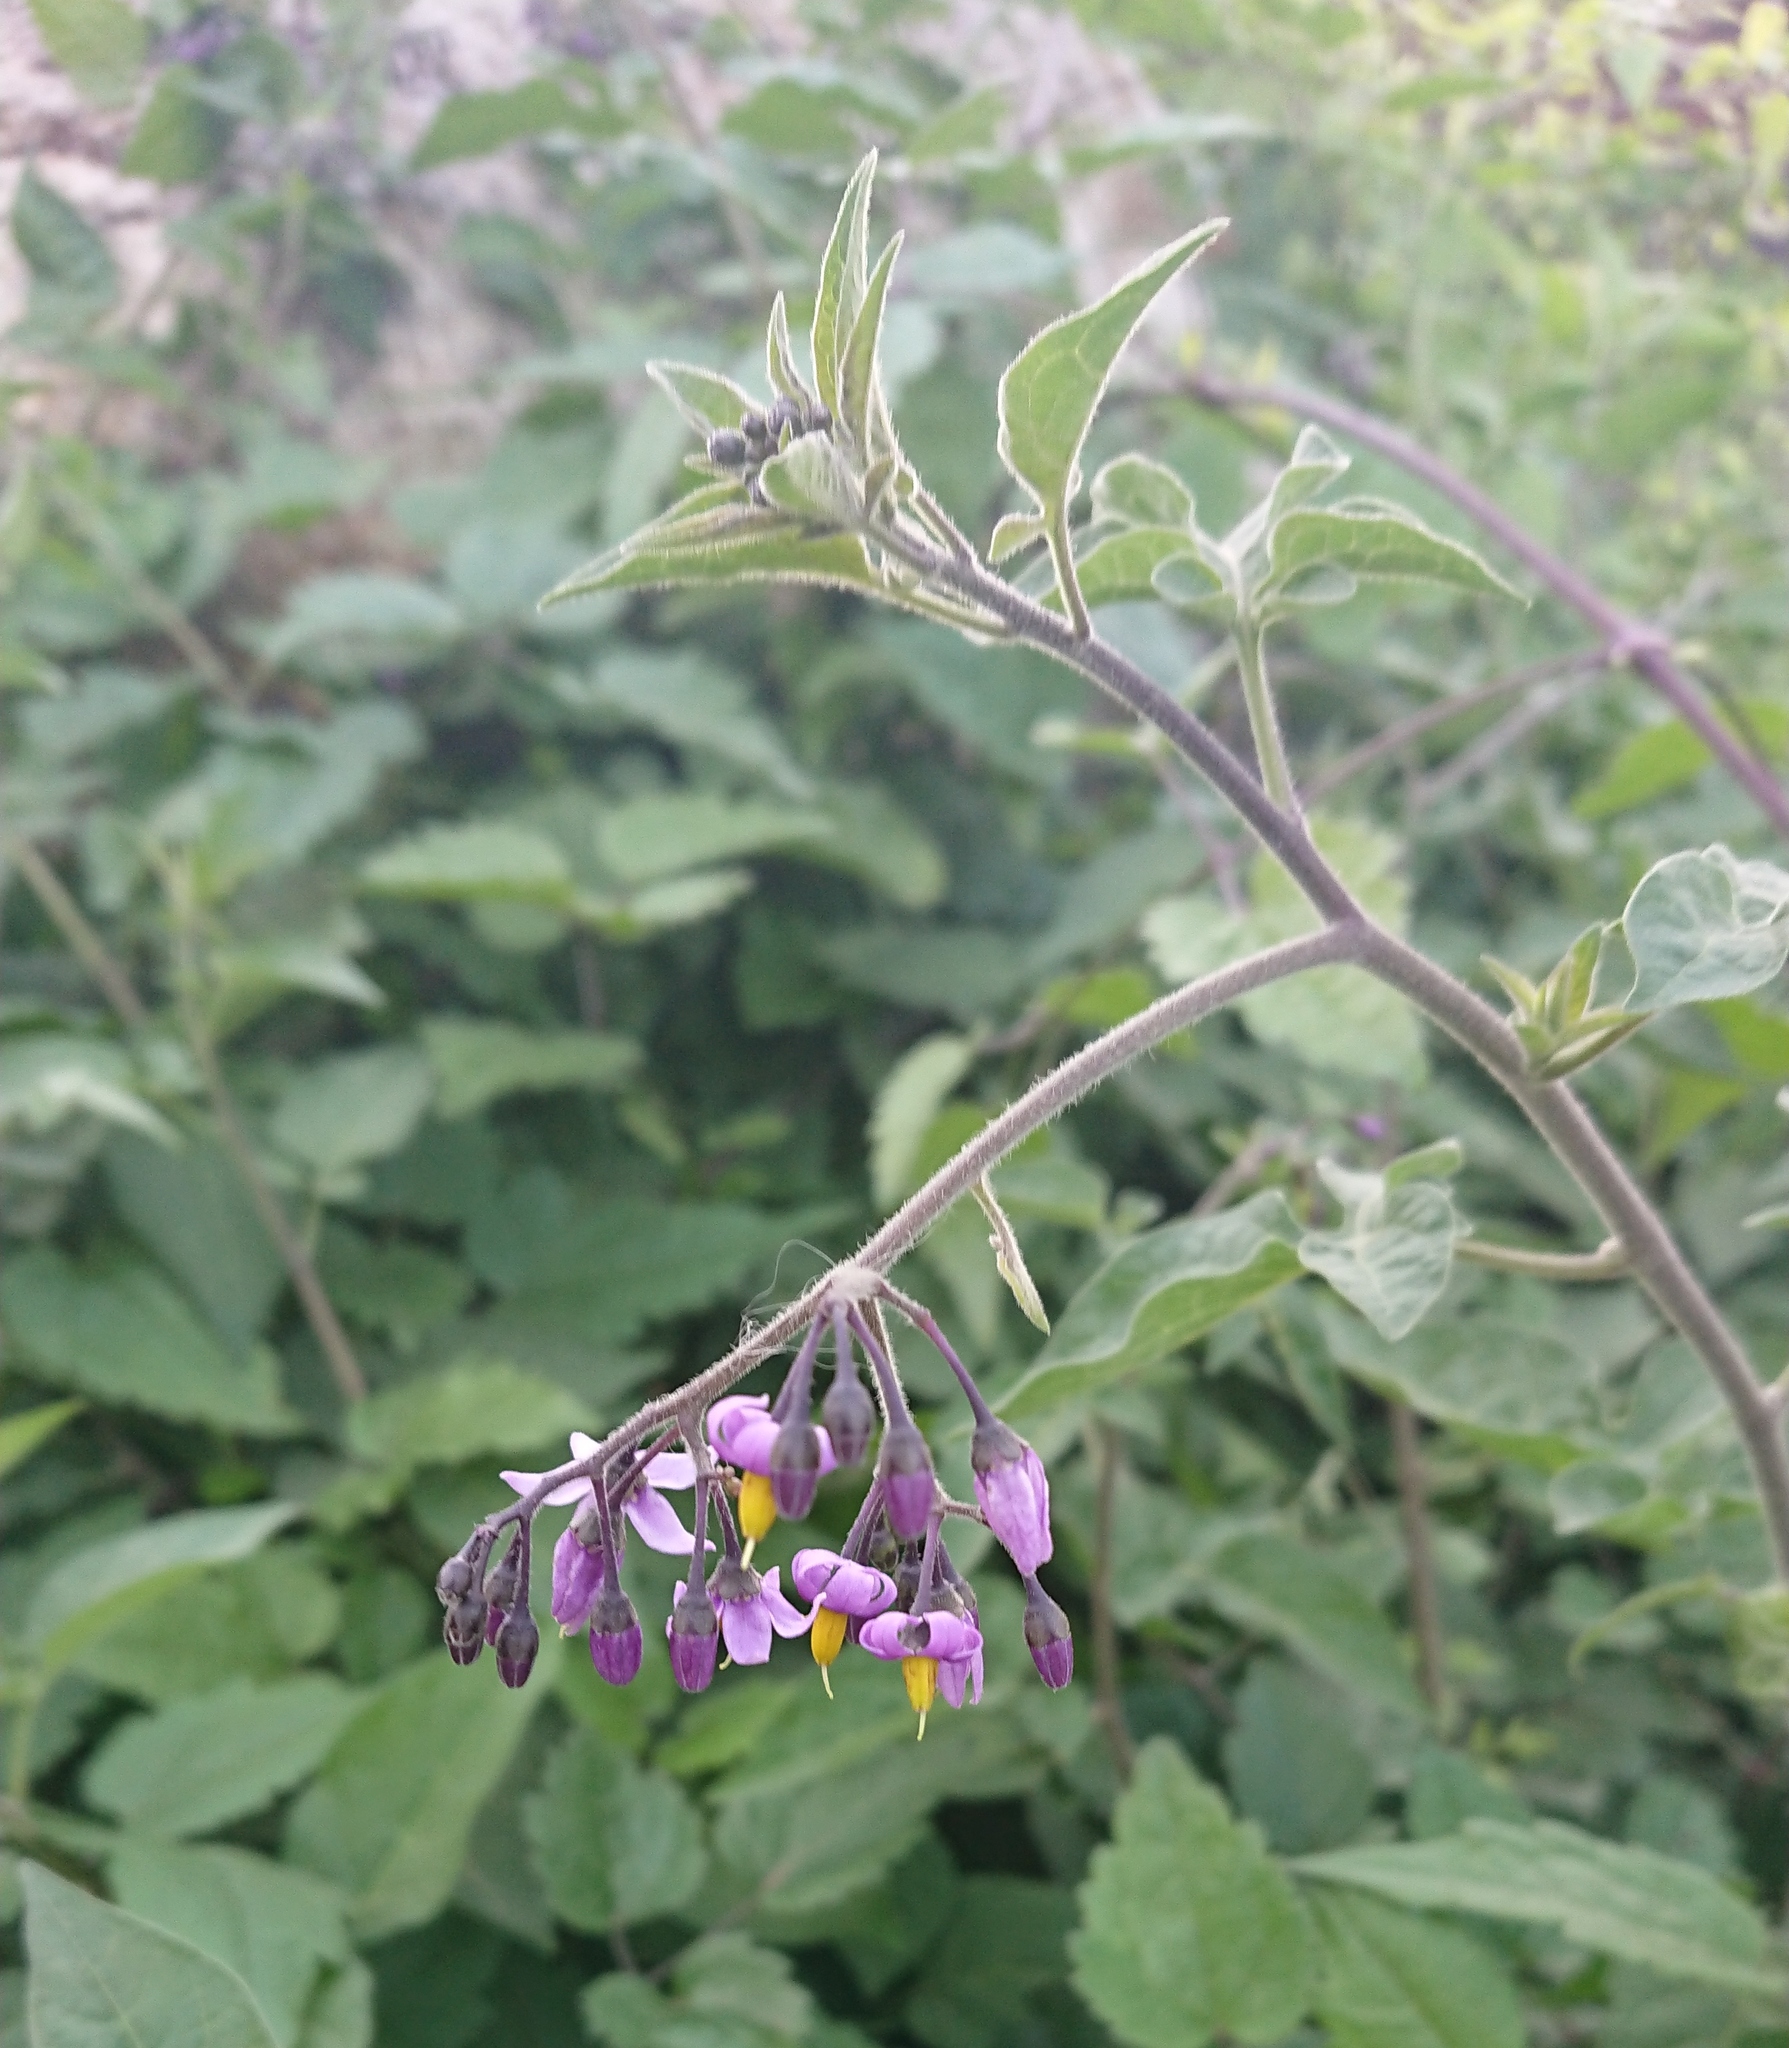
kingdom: Plantae
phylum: Tracheophyta
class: Magnoliopsida
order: Solanales
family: Solanaceae
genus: Solanum
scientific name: Solanum dulcamara
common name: Climbing nightshade
